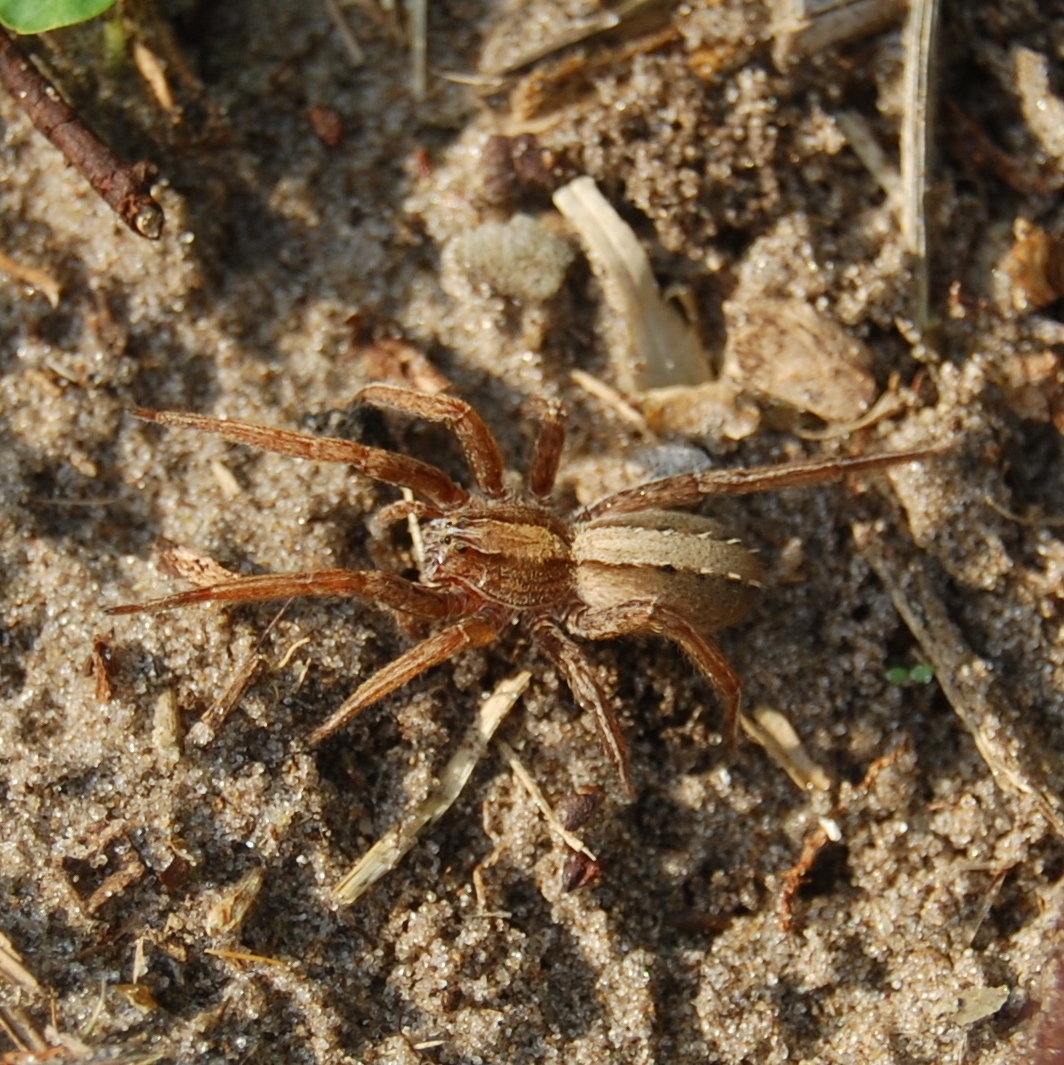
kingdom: Animalia
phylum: Arthropoda
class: Arachnida
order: Araneae
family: Ctenidae
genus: Parabatinga
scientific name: Parabatinga brevipes
